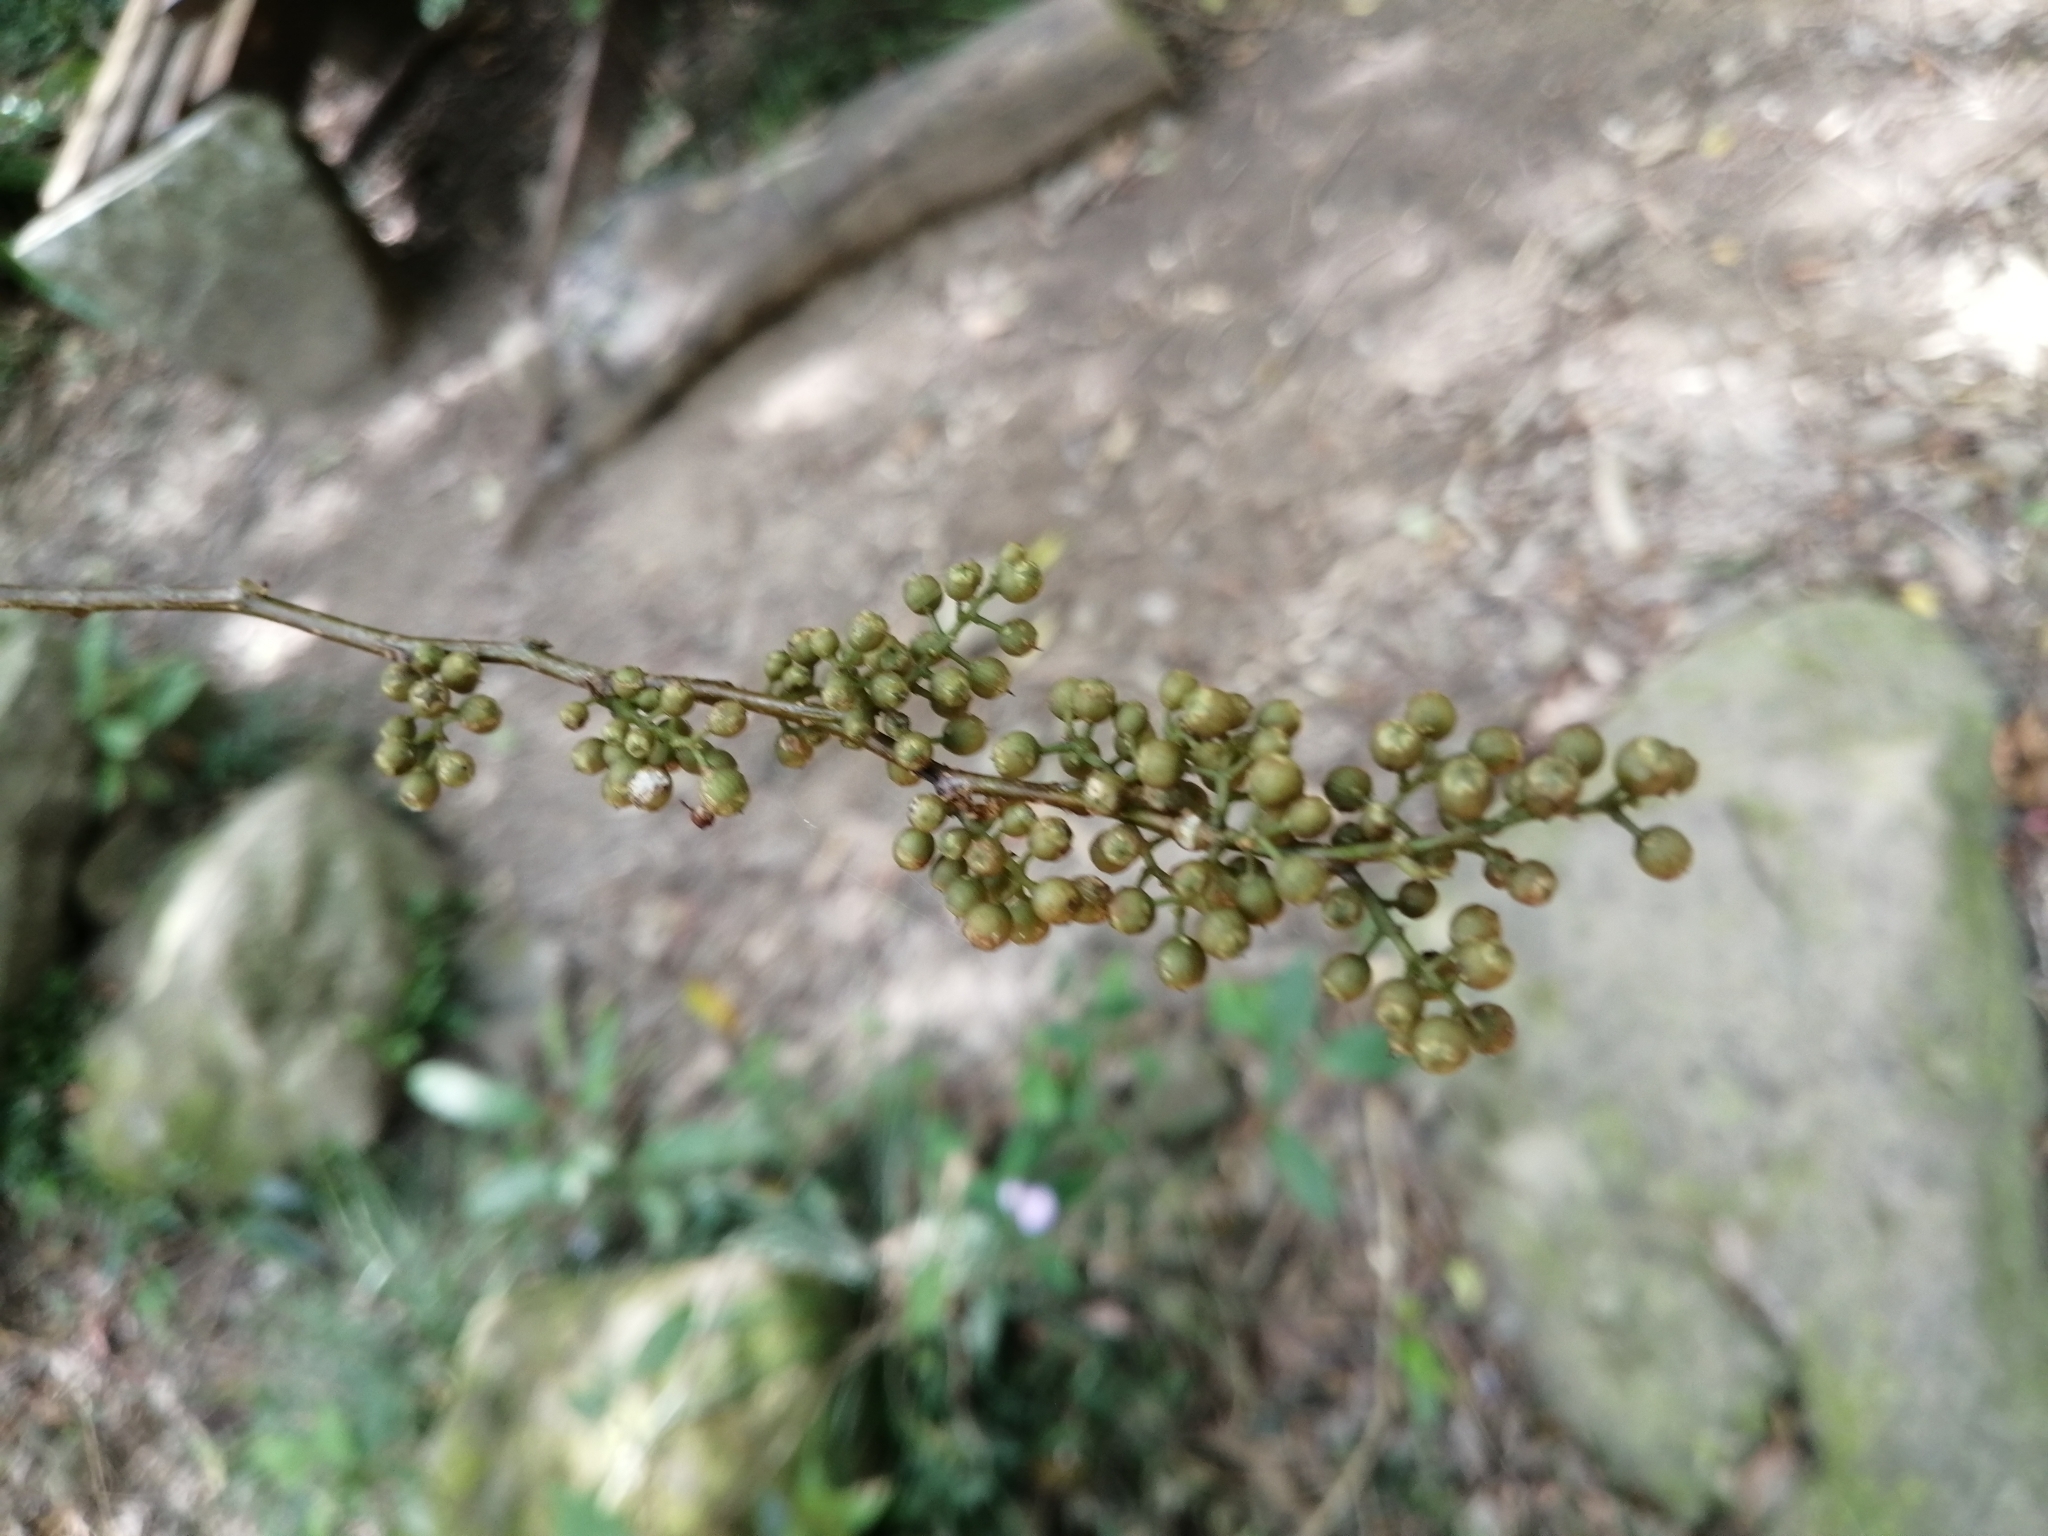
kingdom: Plantae
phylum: Tracheophyta
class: Magnoliopsida
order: Ericales
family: Primulaceae
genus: Maesa
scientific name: Maesa japonica
